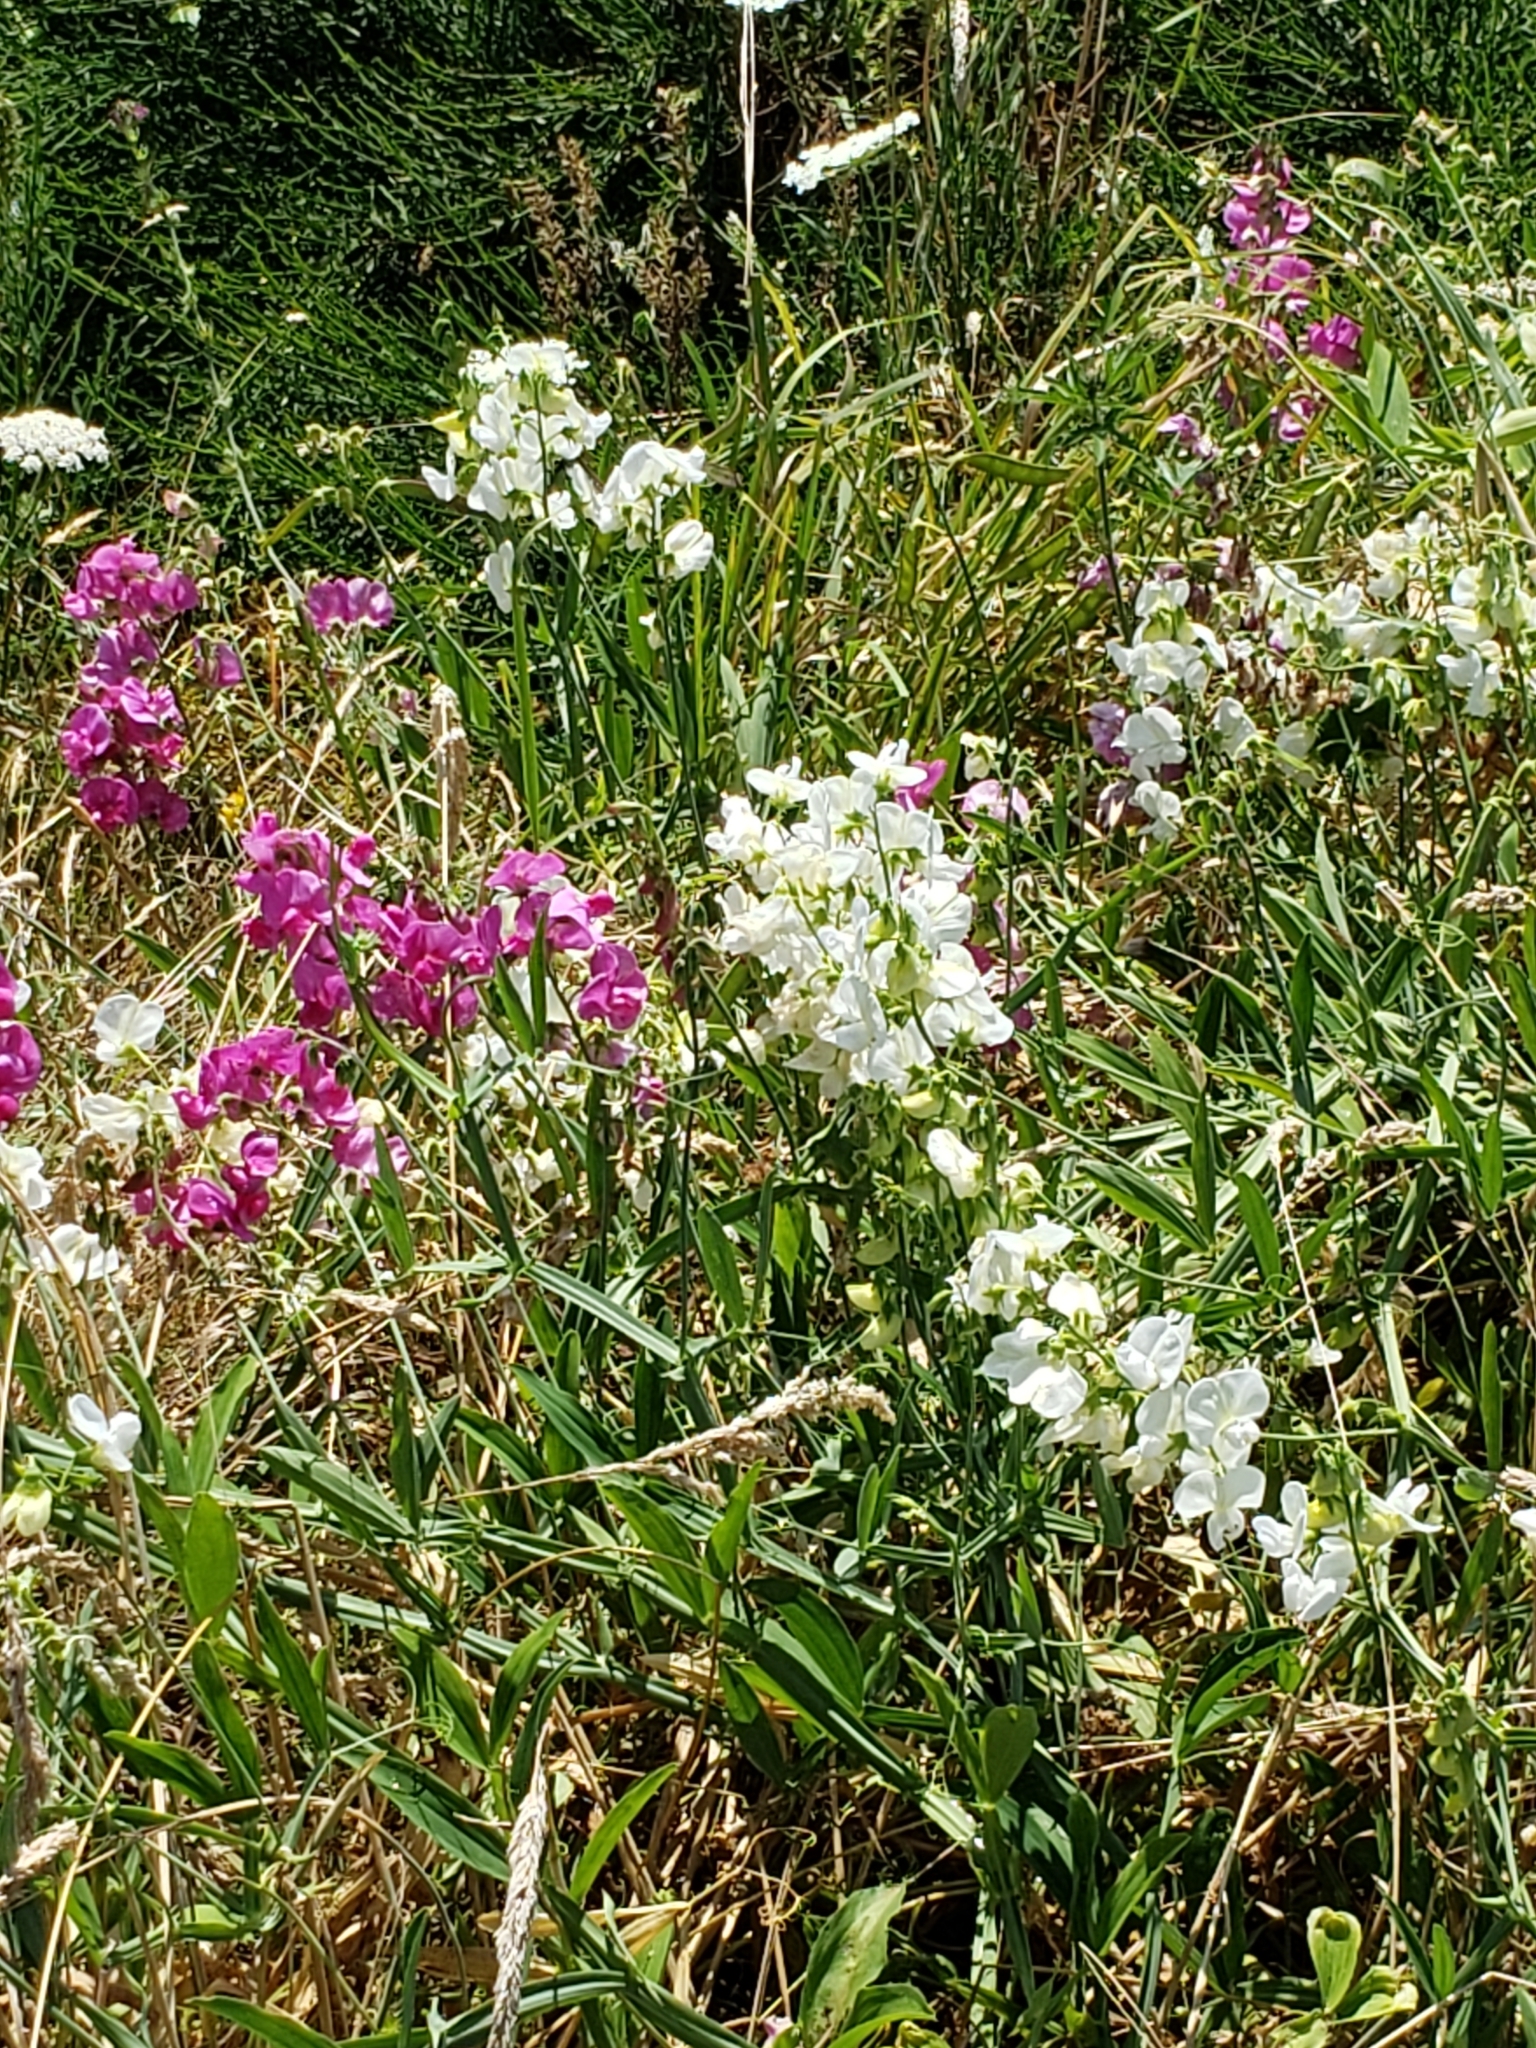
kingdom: Plantae
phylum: Tracheophyta
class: Magnoliopsida
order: Fabales
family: Fabaceae
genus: Lathyrus
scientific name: Lathyrus latifolius
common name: Perennial pea
